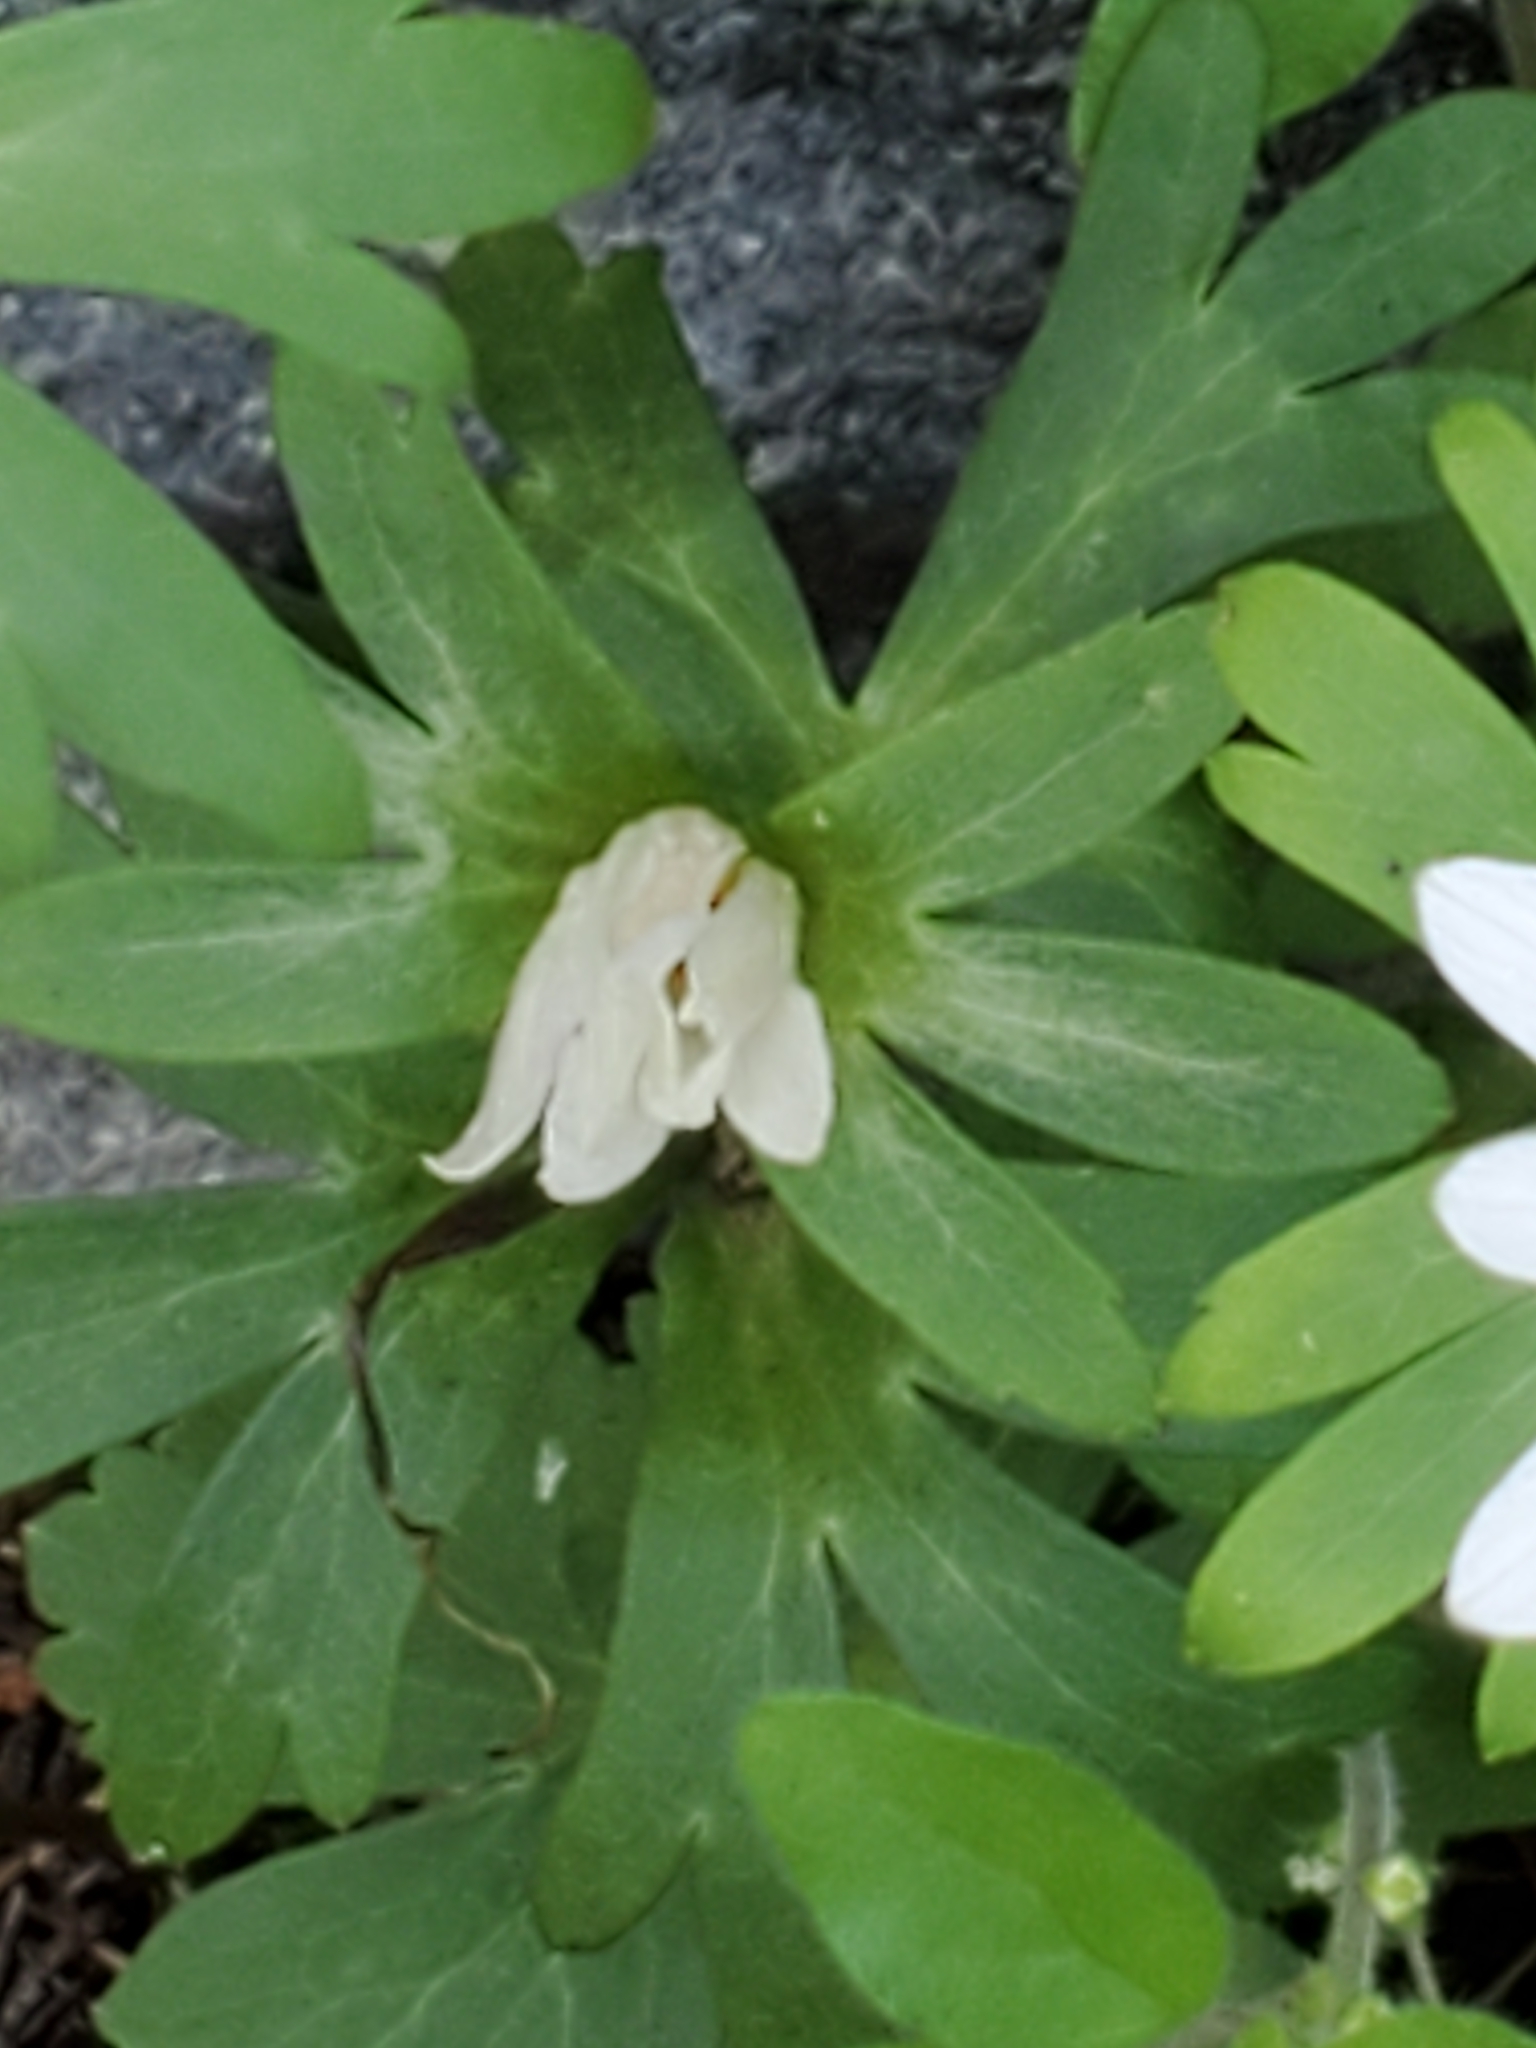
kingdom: Plantae
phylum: Tracheophyta
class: Magnoliopsida
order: Ranunculales
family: Ranunculaceae
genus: Anemone
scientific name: Anemone edwardsiana
